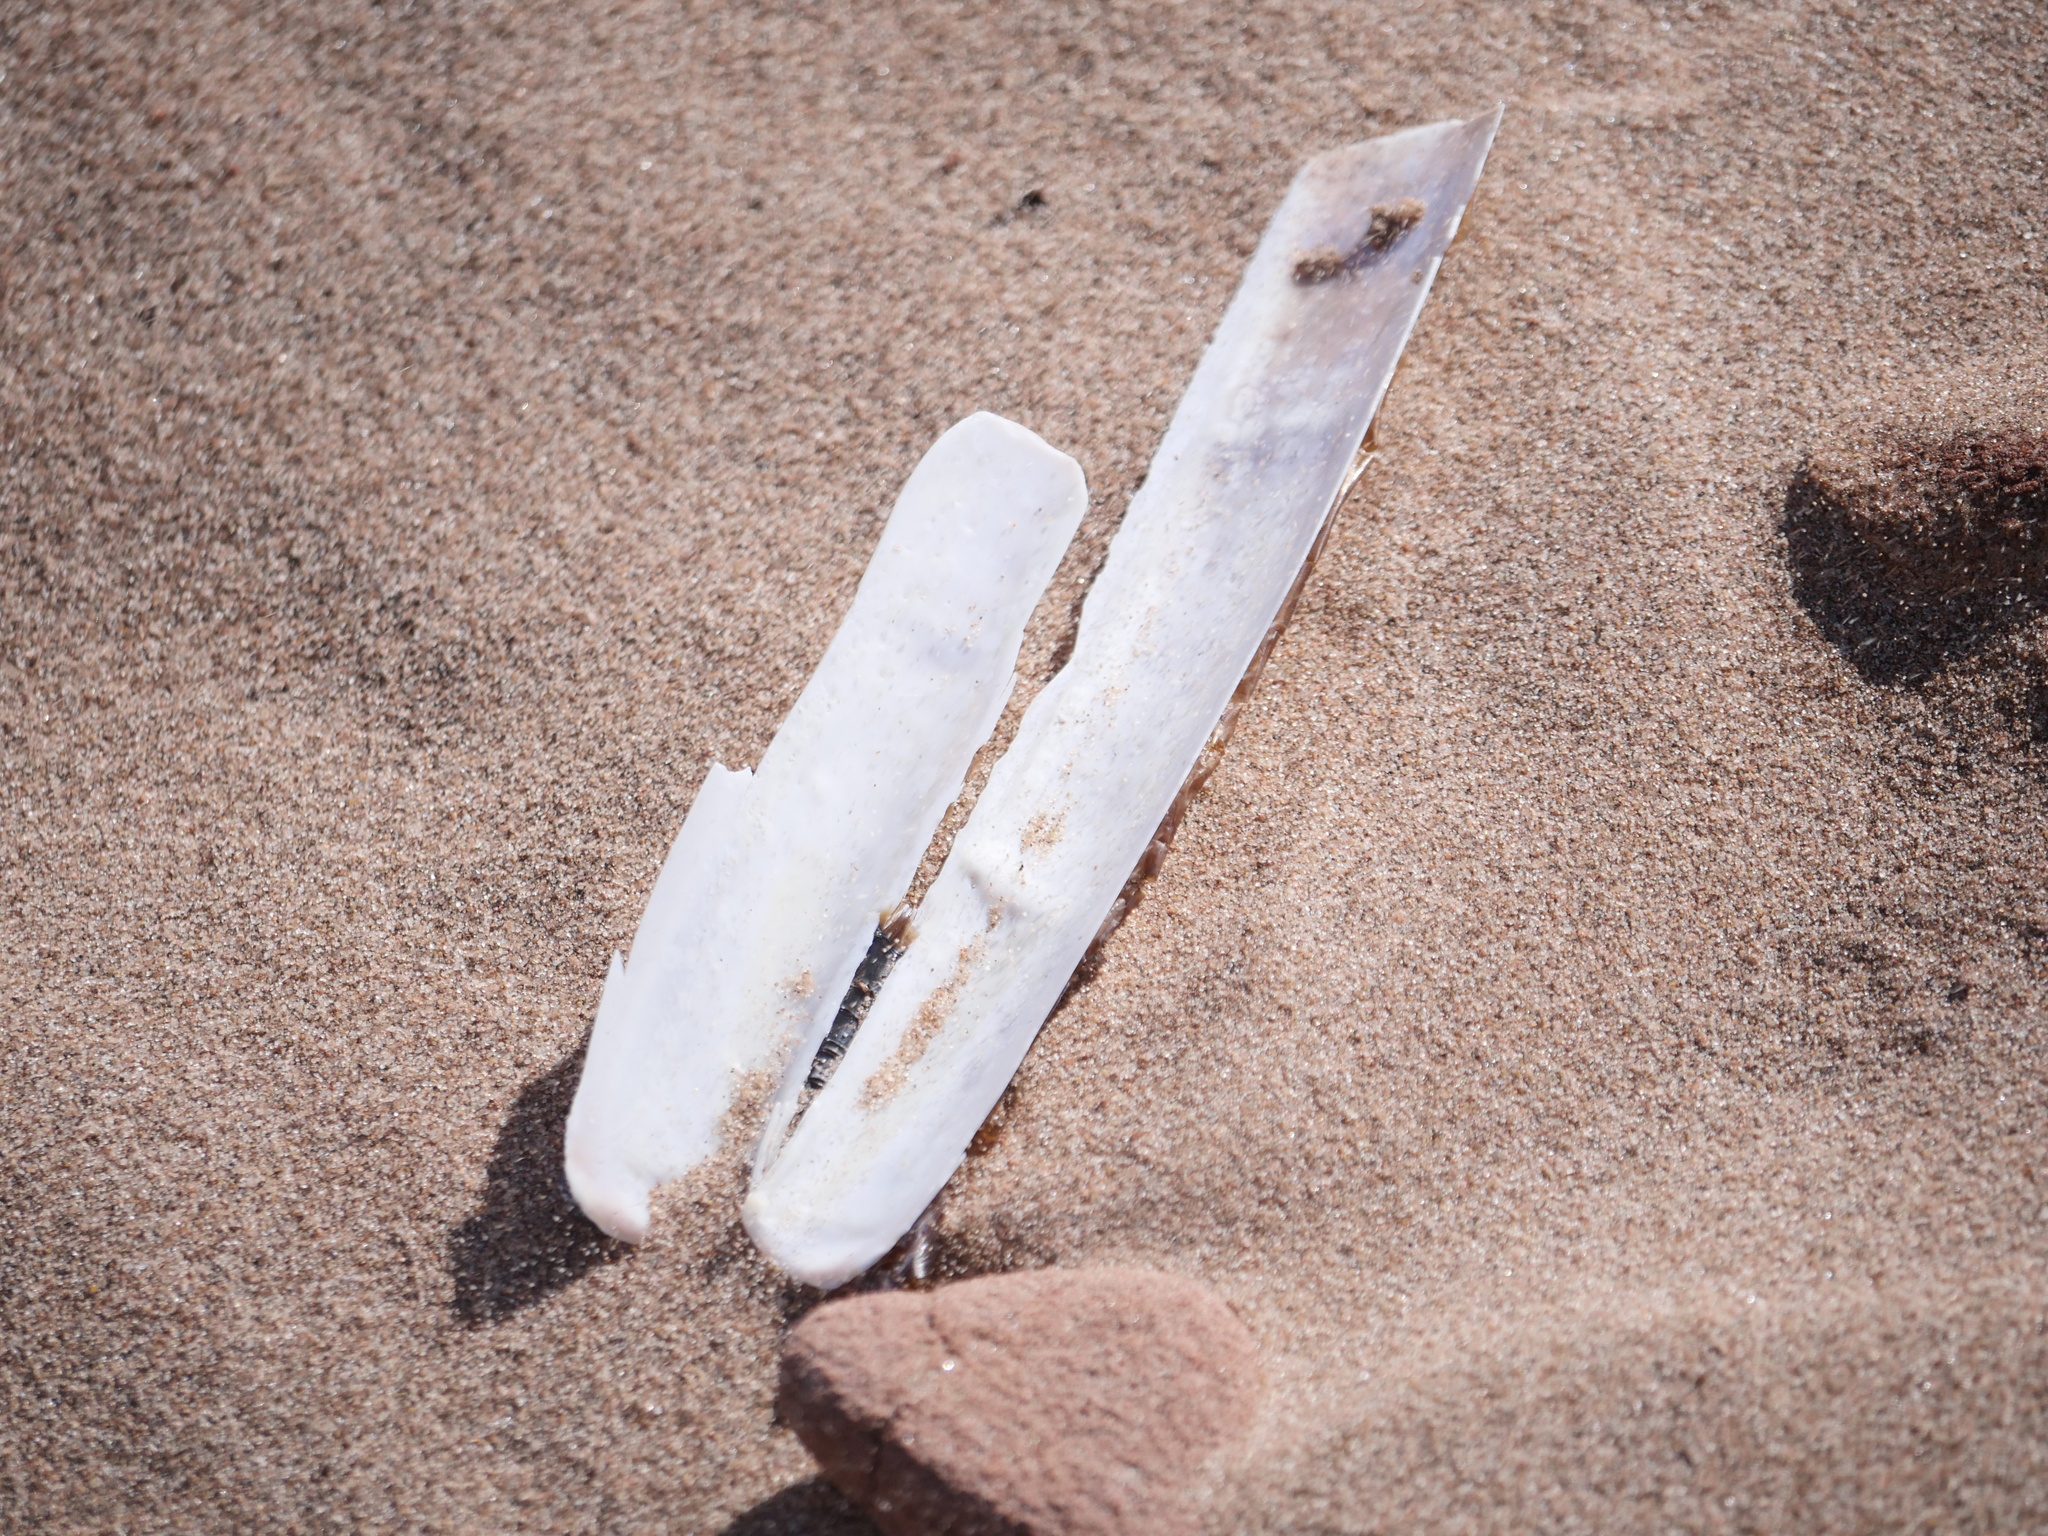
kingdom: Animalia
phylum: Mollusca
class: Bivalvia
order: Adapedonta
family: Pharidae
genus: Ensis
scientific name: Ensis leei
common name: American jack knife clam
